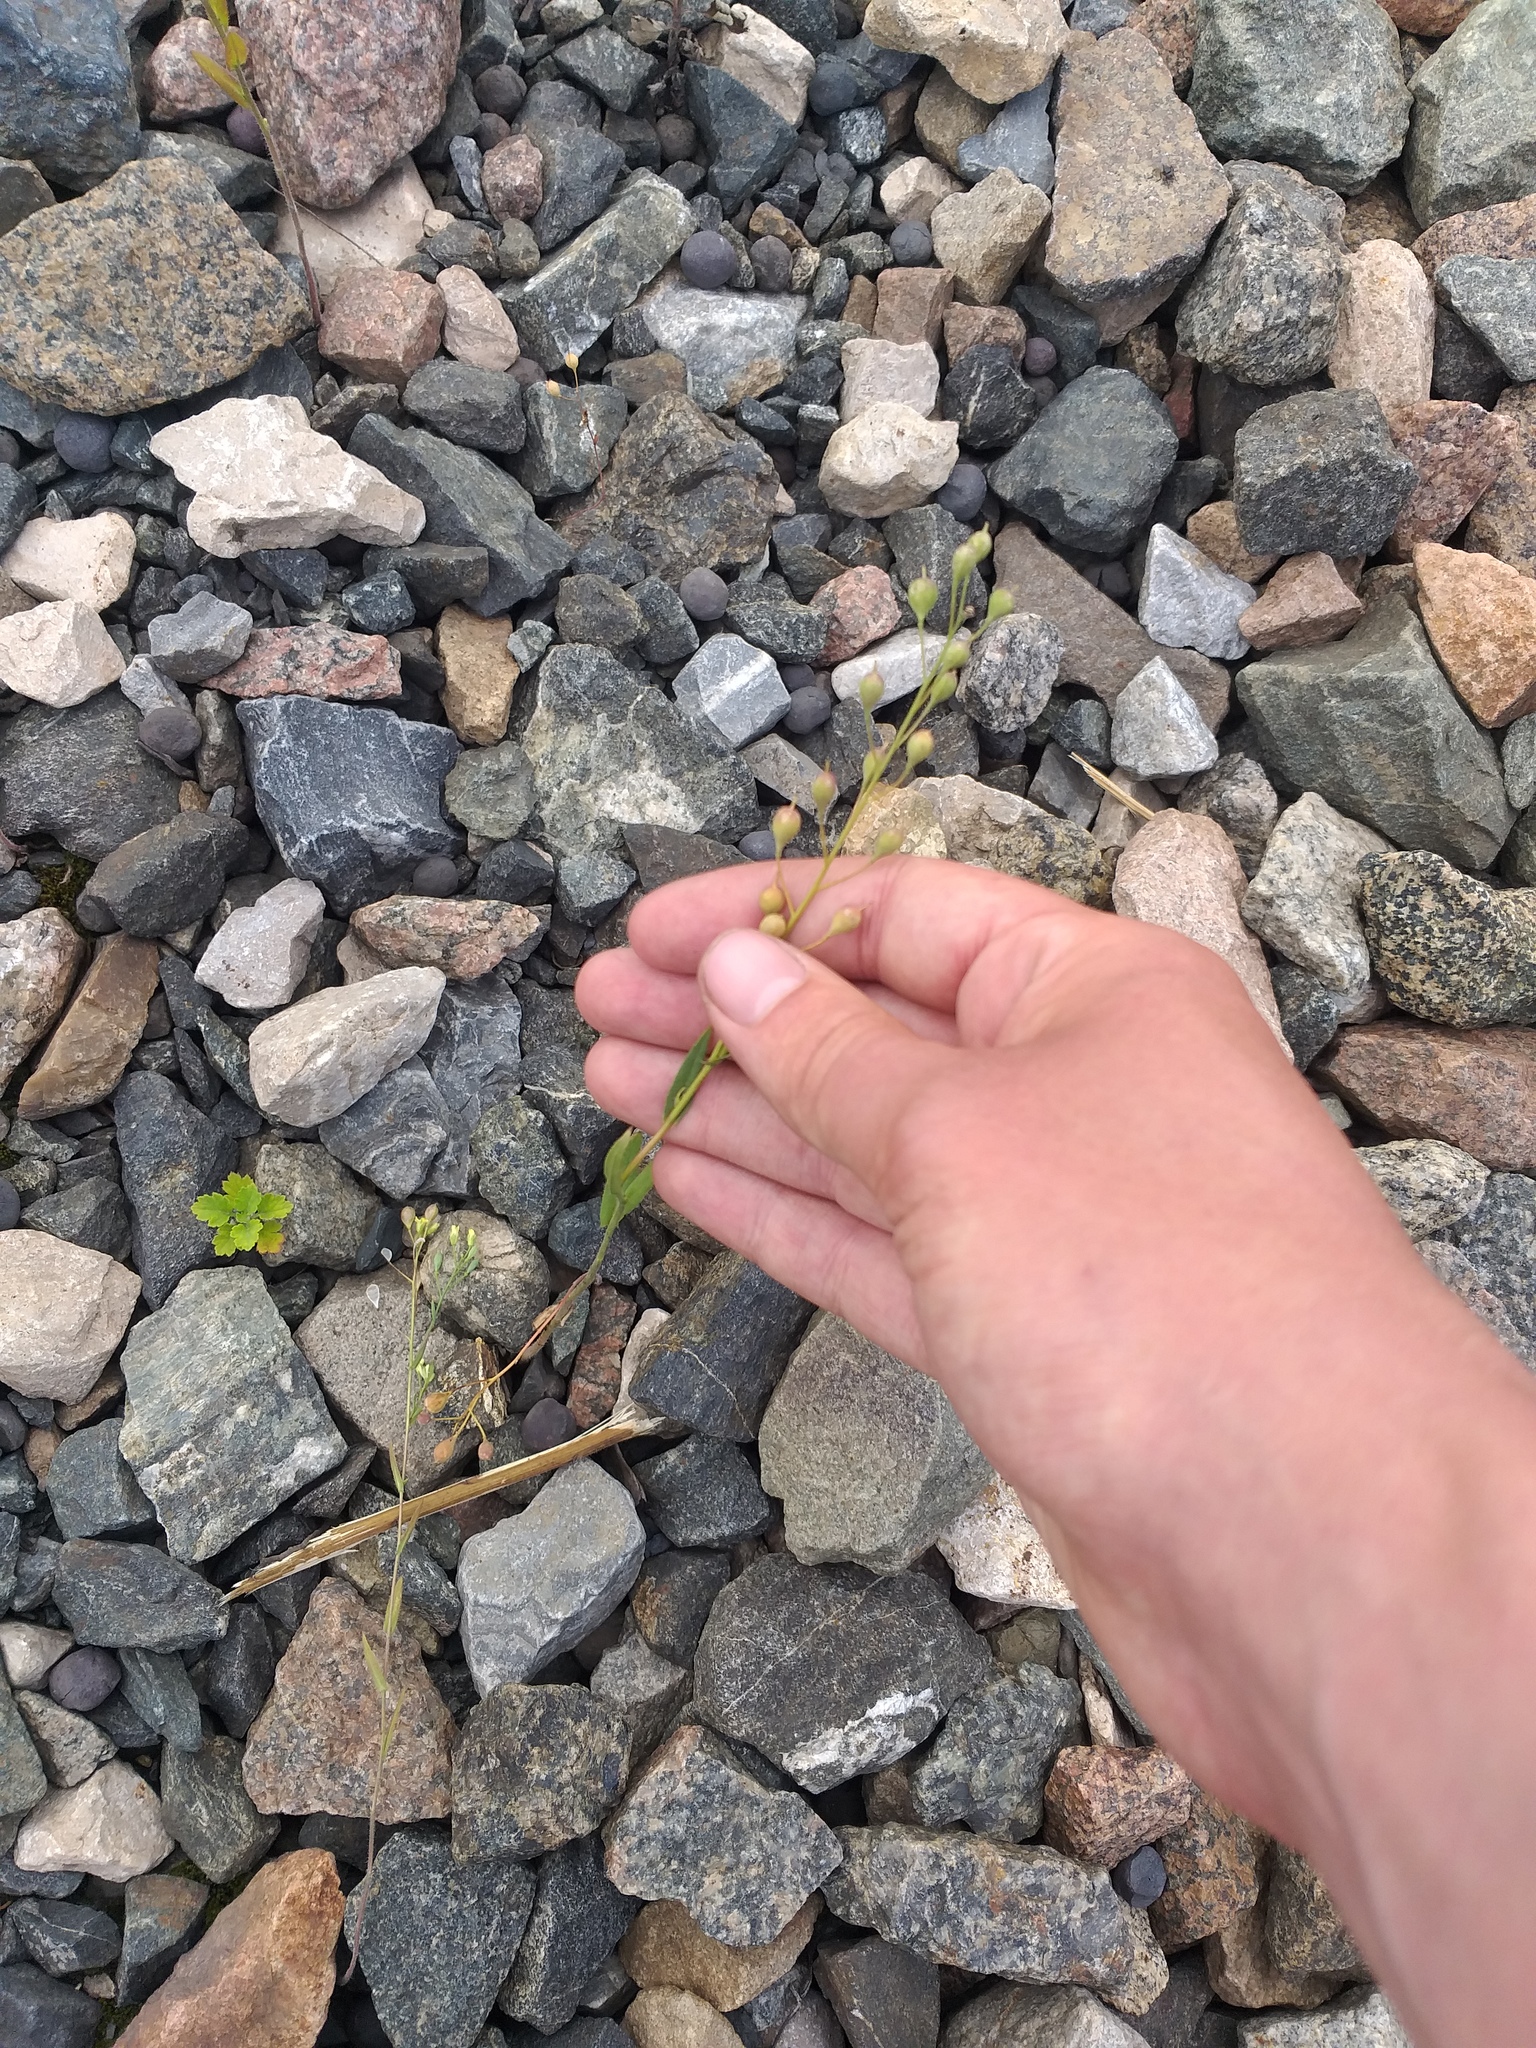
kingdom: Plantae
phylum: Tracheophyta
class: Magnoliopsida
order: Brassicales
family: Brassicaceae
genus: Camelina
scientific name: Camelina sativa
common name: Gold-of-pleasure
